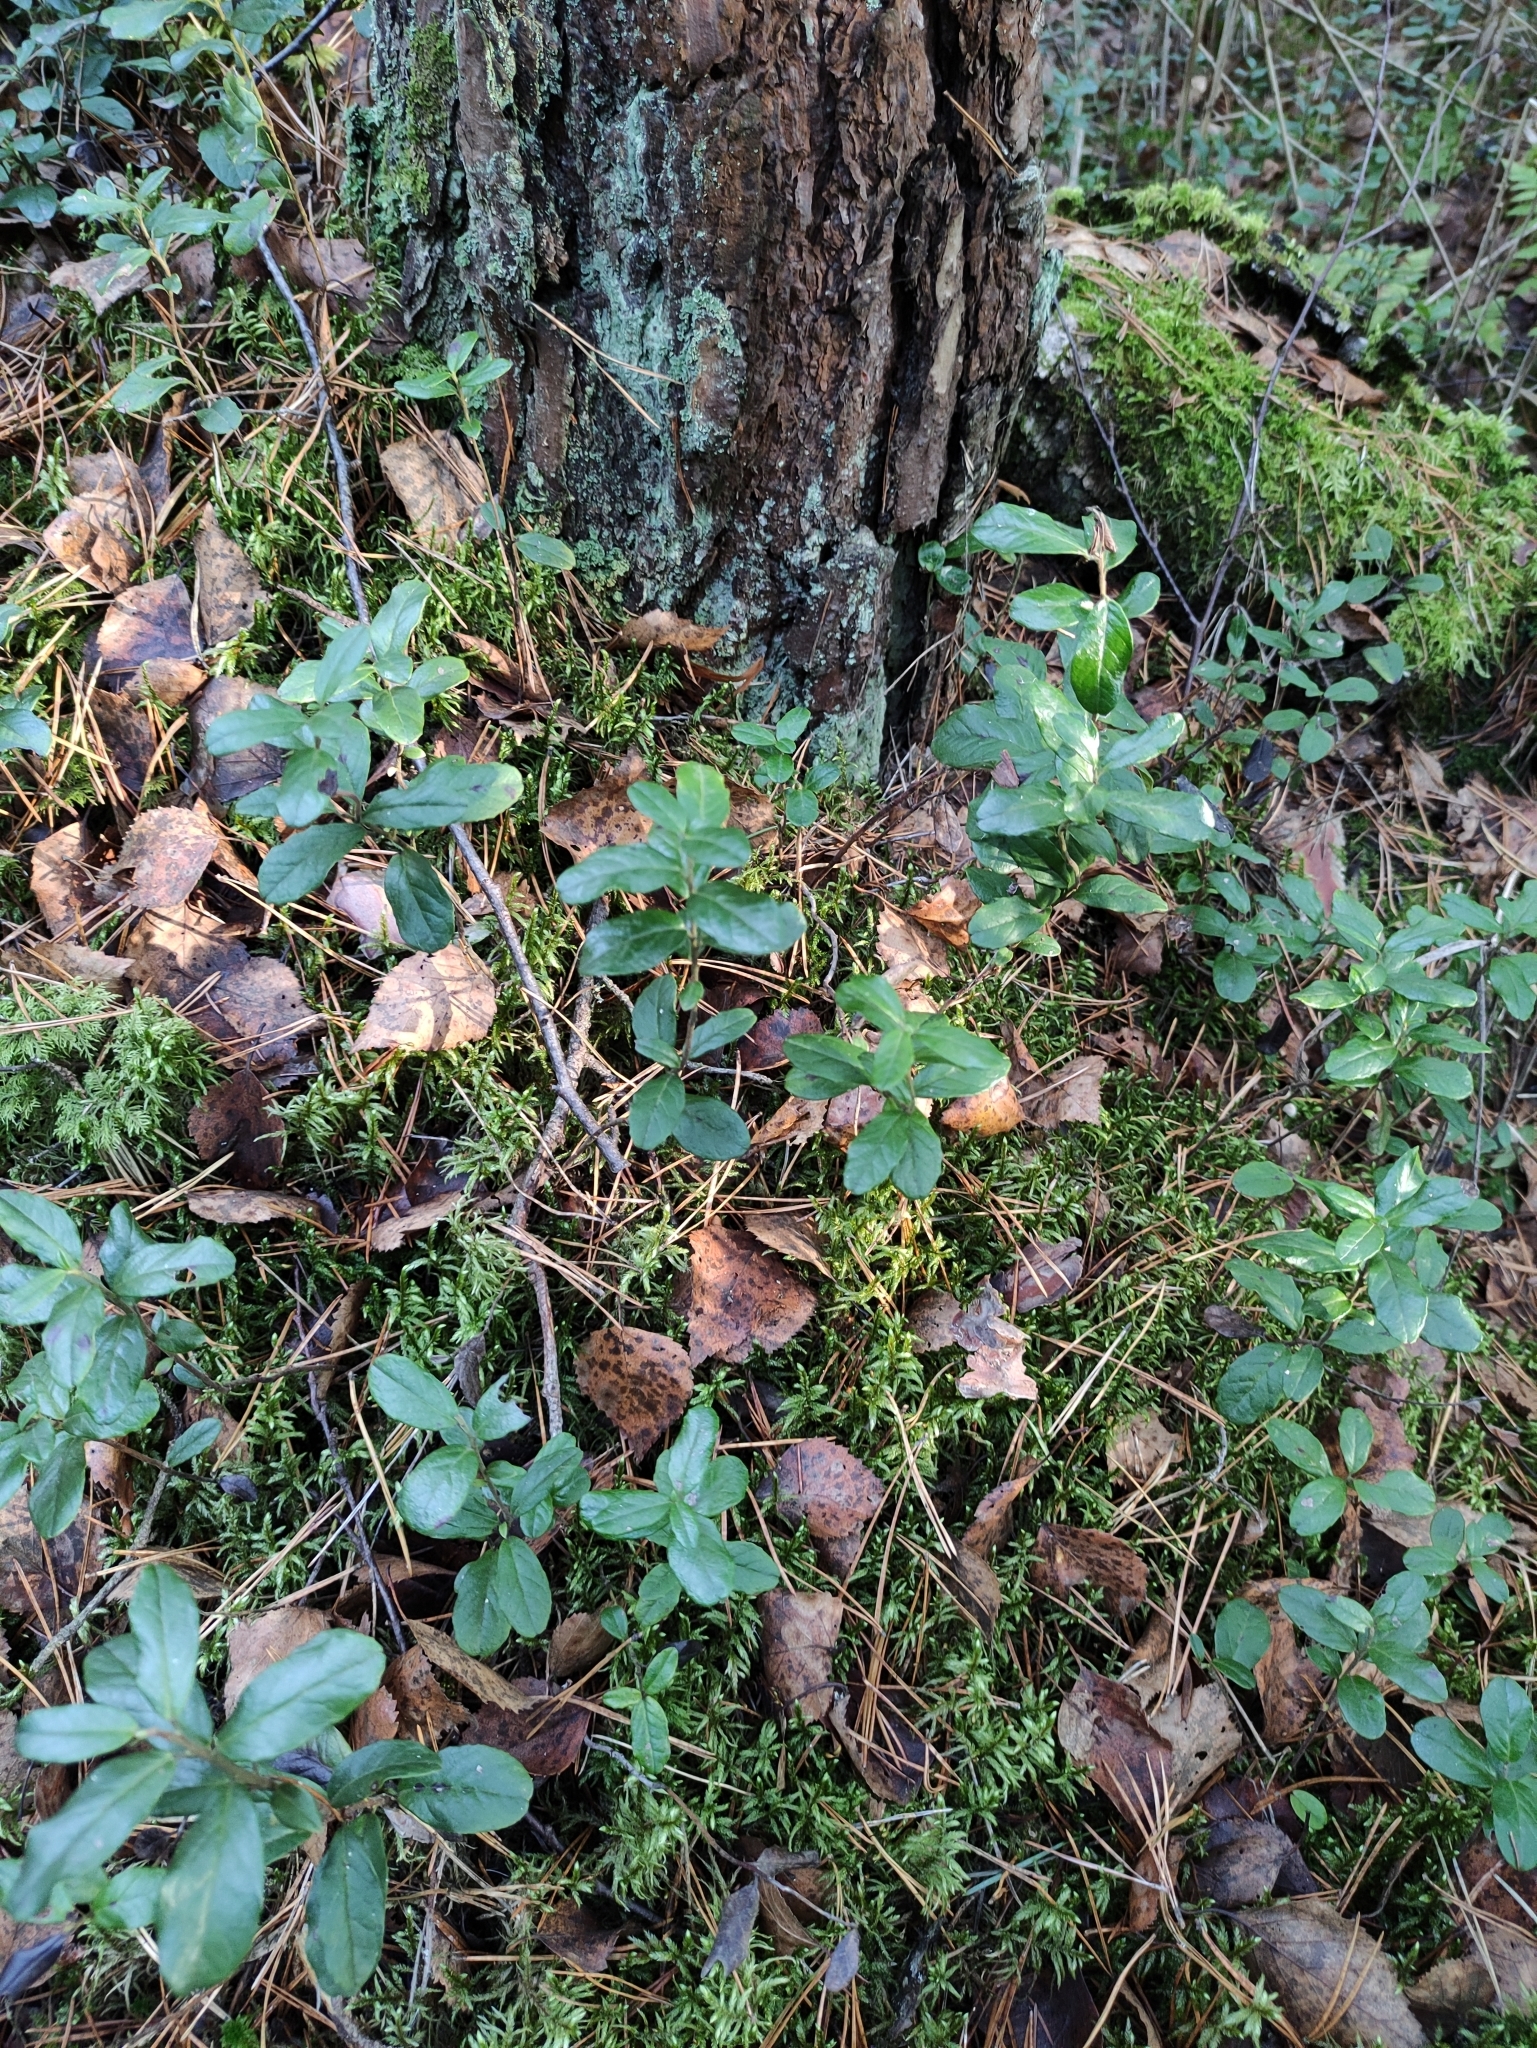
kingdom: Plantae
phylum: Tracheophyta
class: Magnoliopsida
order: Ericales
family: Ericaceae
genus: Vaccinium
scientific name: Vaccinium vitis-idaea
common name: Cowberry
